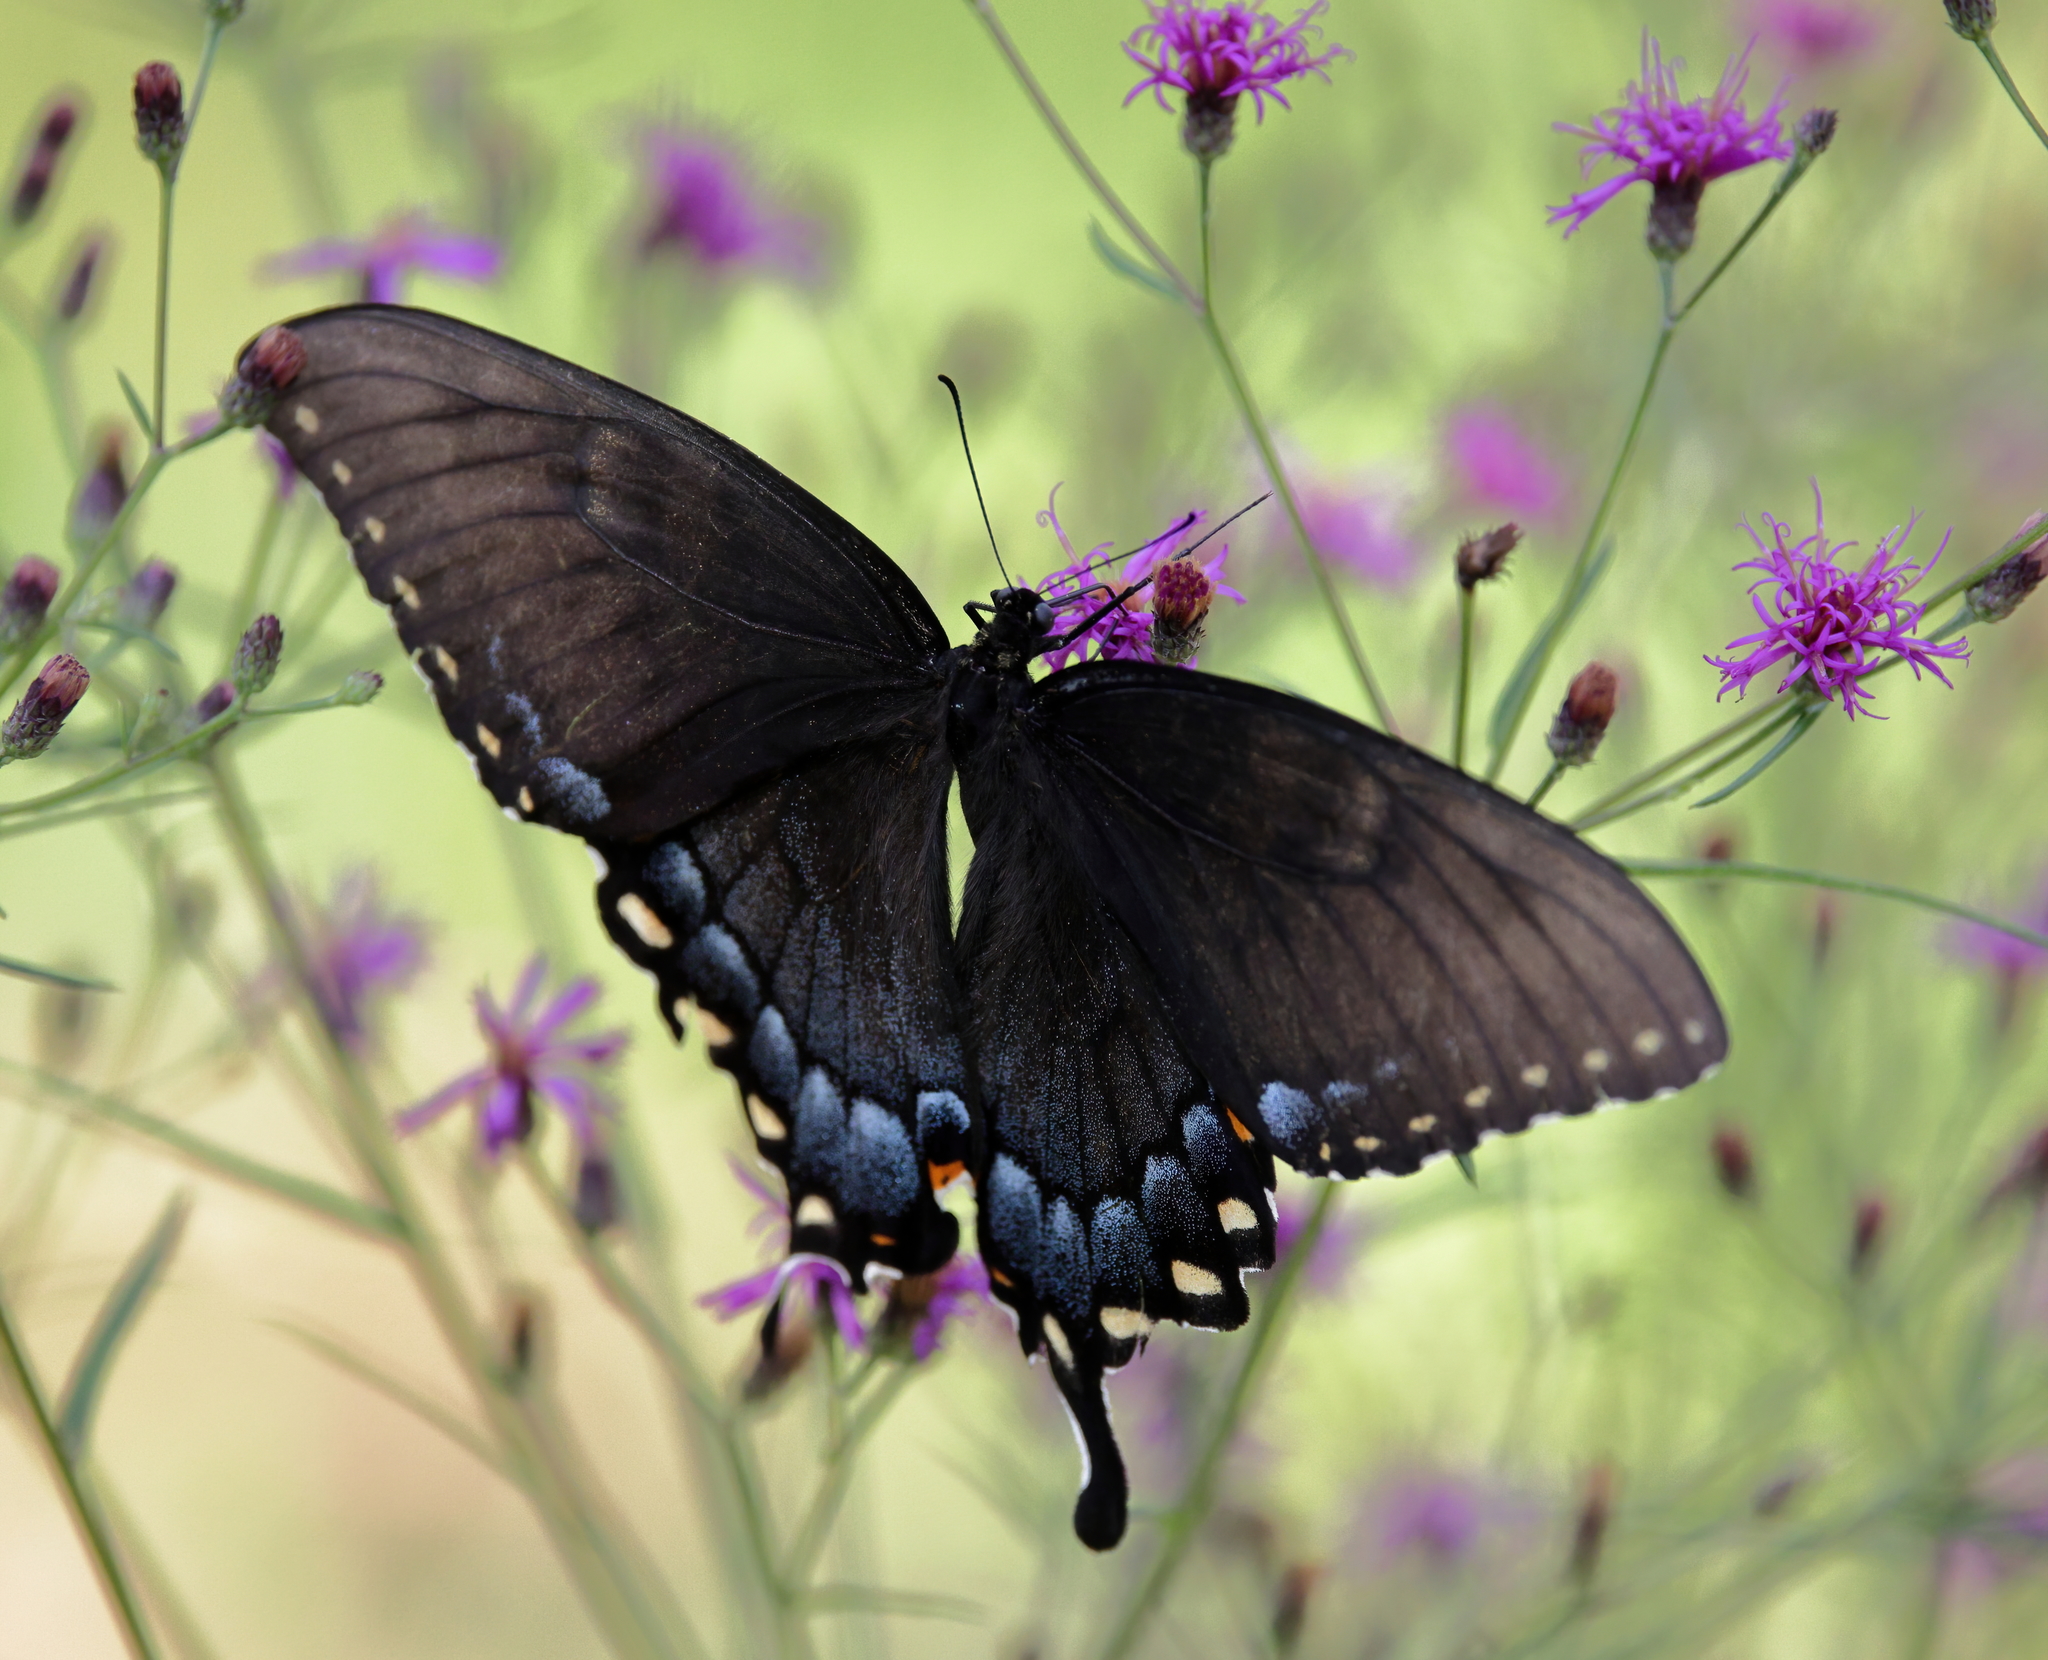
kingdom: Animalia
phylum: Arthropoda
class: Insecta
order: Lepidoptera
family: Papilionidae
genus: Papilio
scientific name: Papilio glaucus
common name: Tiger swallowtail
